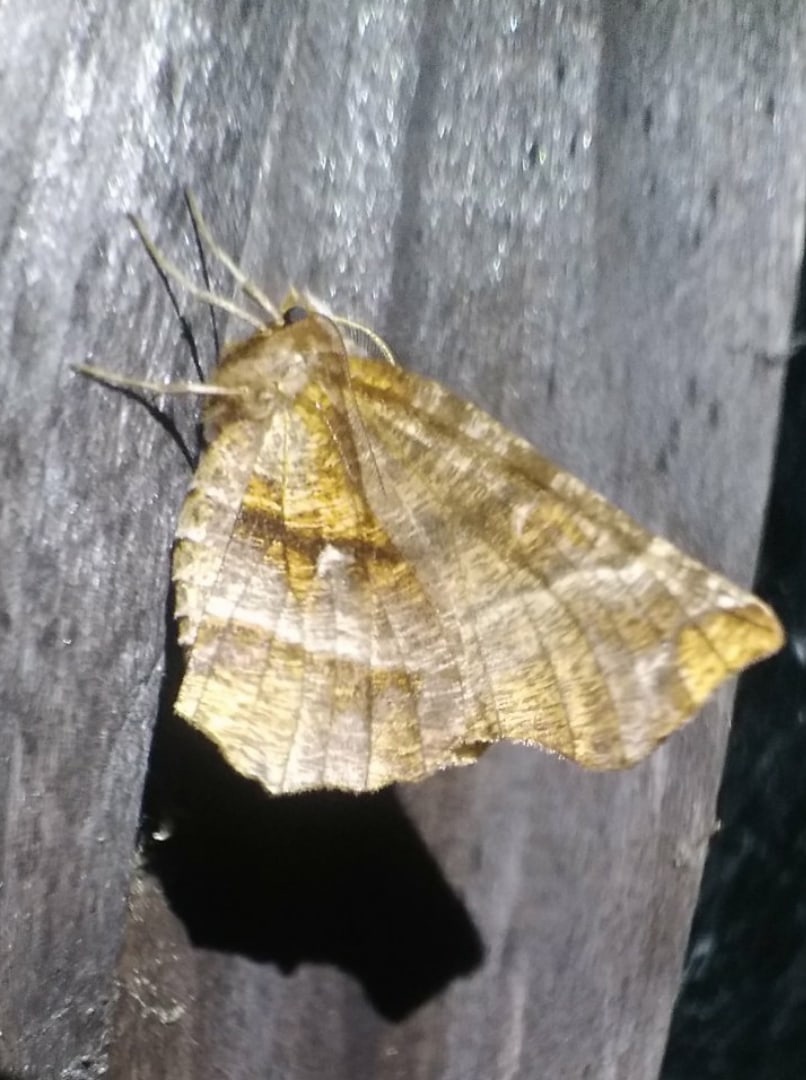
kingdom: Animalia
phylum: Arthropoda
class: Insecta
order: Lepidoptera
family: Geometridae
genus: Selenia
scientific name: Selenia dentaria
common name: Early thorn
